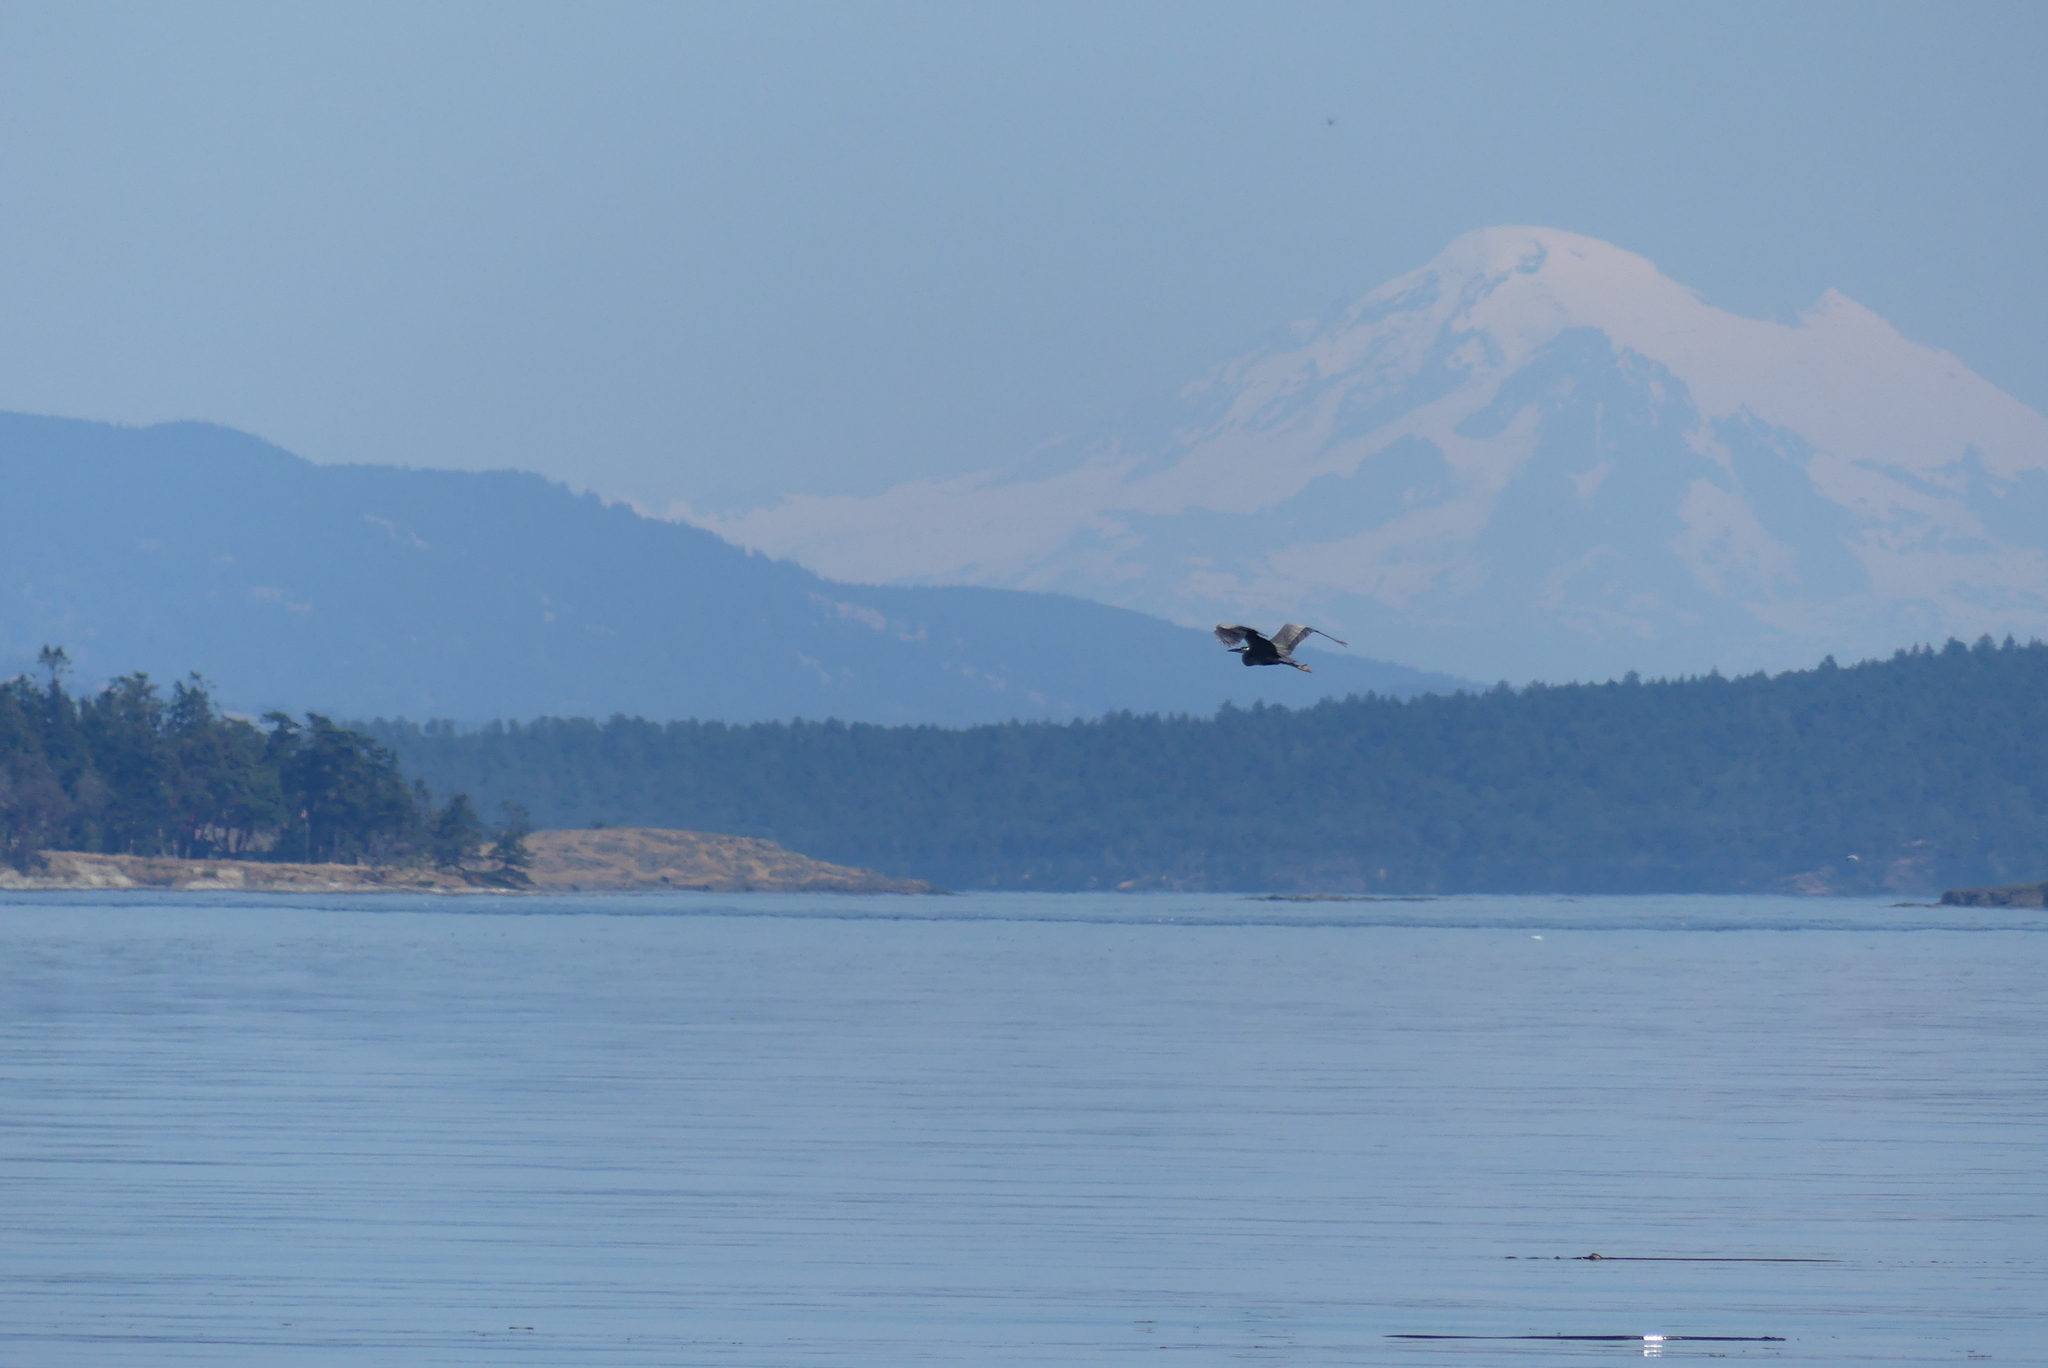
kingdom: Animalia
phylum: Chordata
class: Aves
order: Pelecaniformes
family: Ardeidae
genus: Ardea
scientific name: Ardea herodias
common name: Great blue heron
